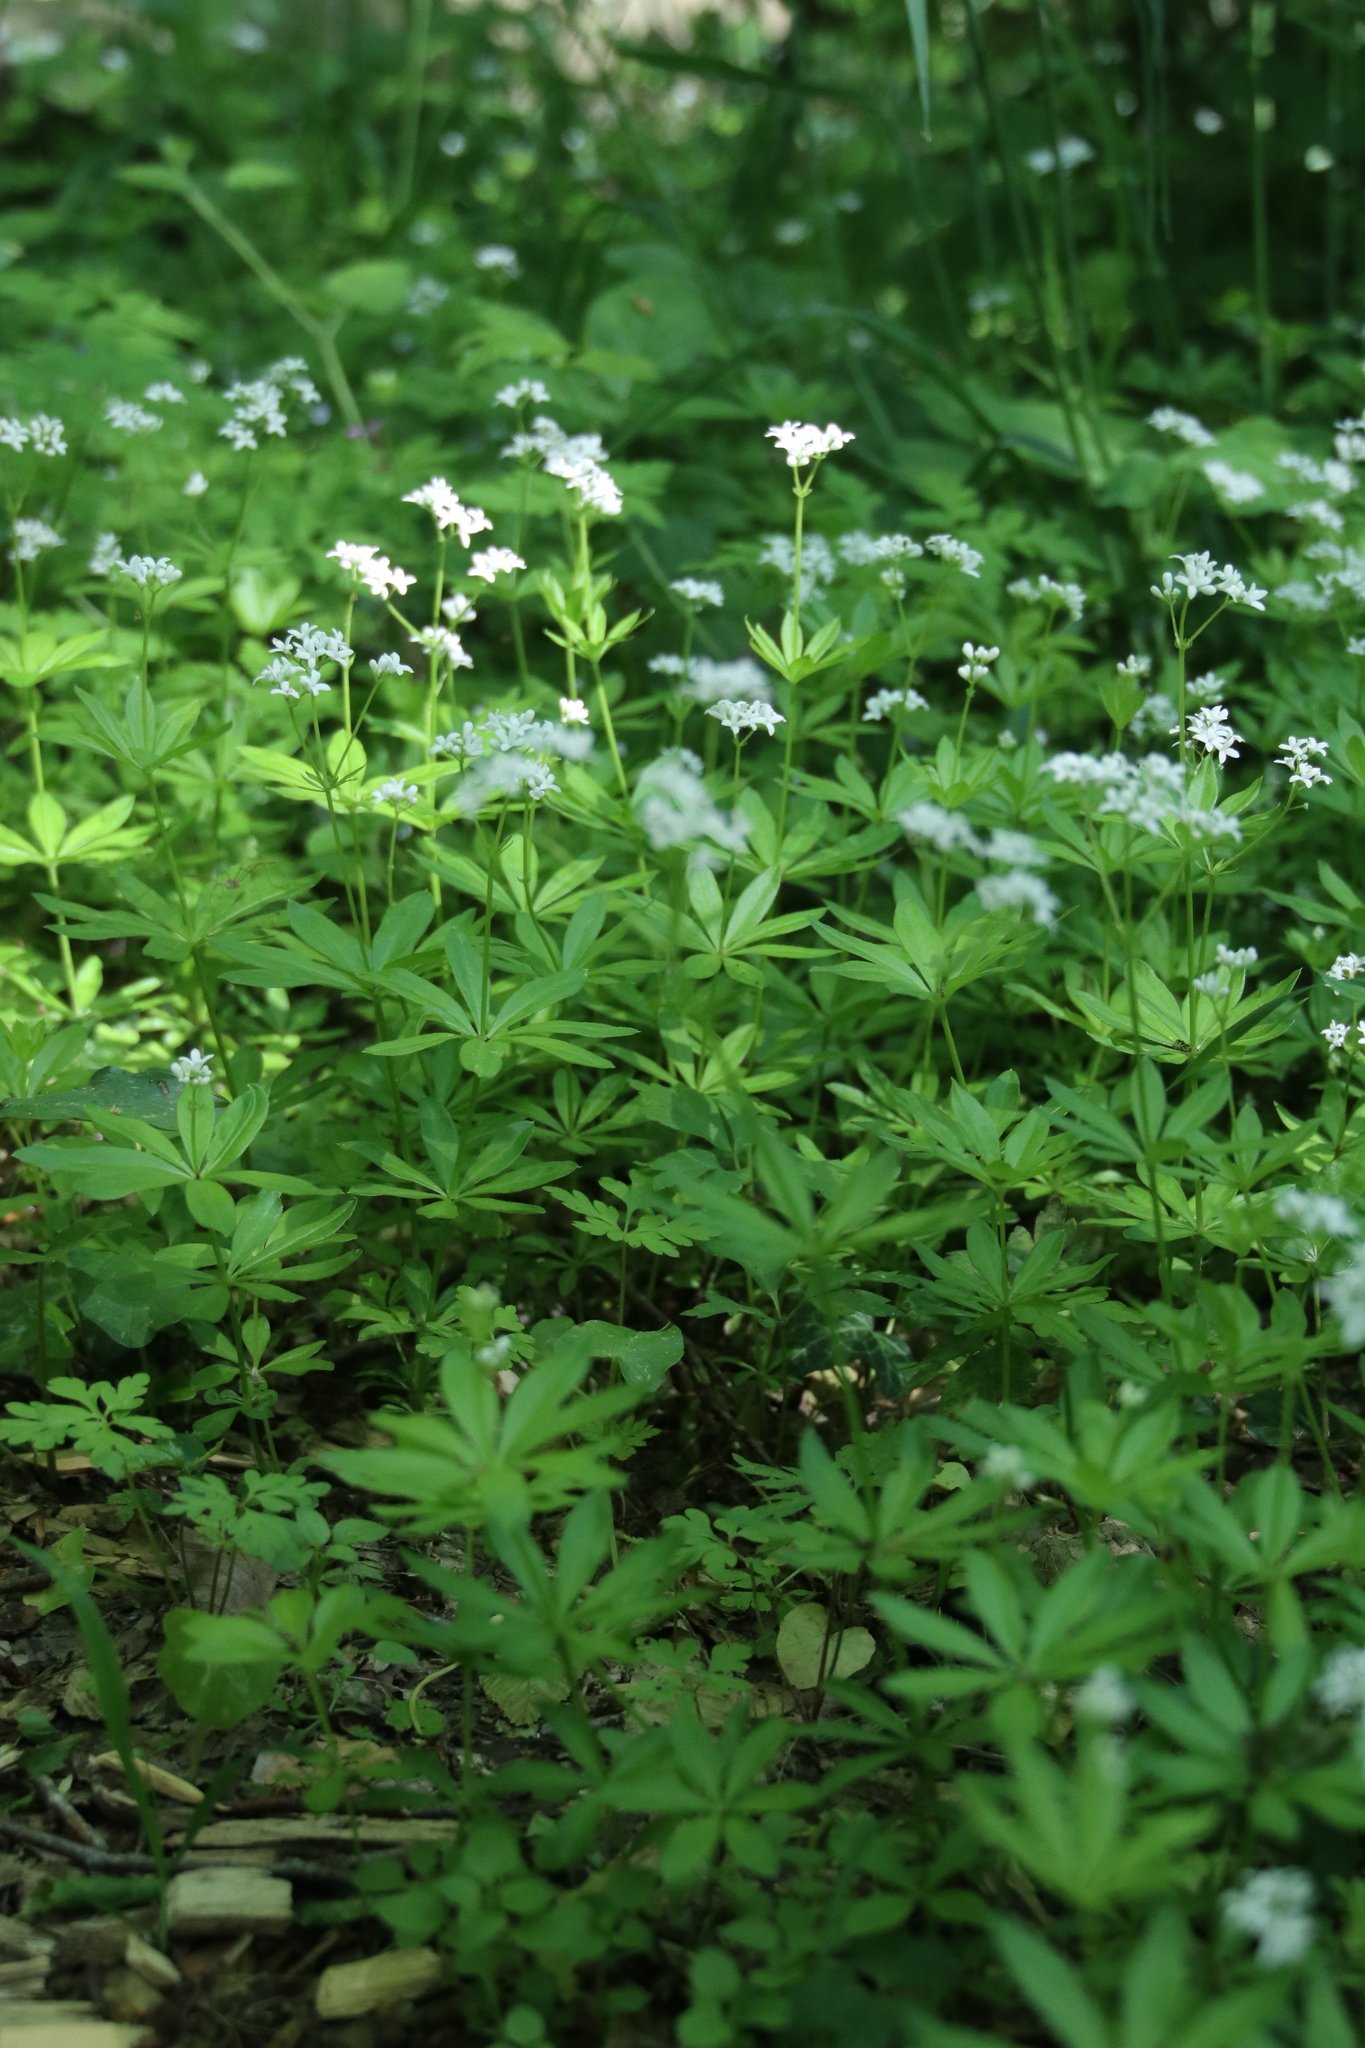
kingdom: Plantae
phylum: Tracheophyta
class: Magnoliopsida
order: Gentianales
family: Rubiaceae
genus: Galium
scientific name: Galium odoratum
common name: Sweet woodruff
